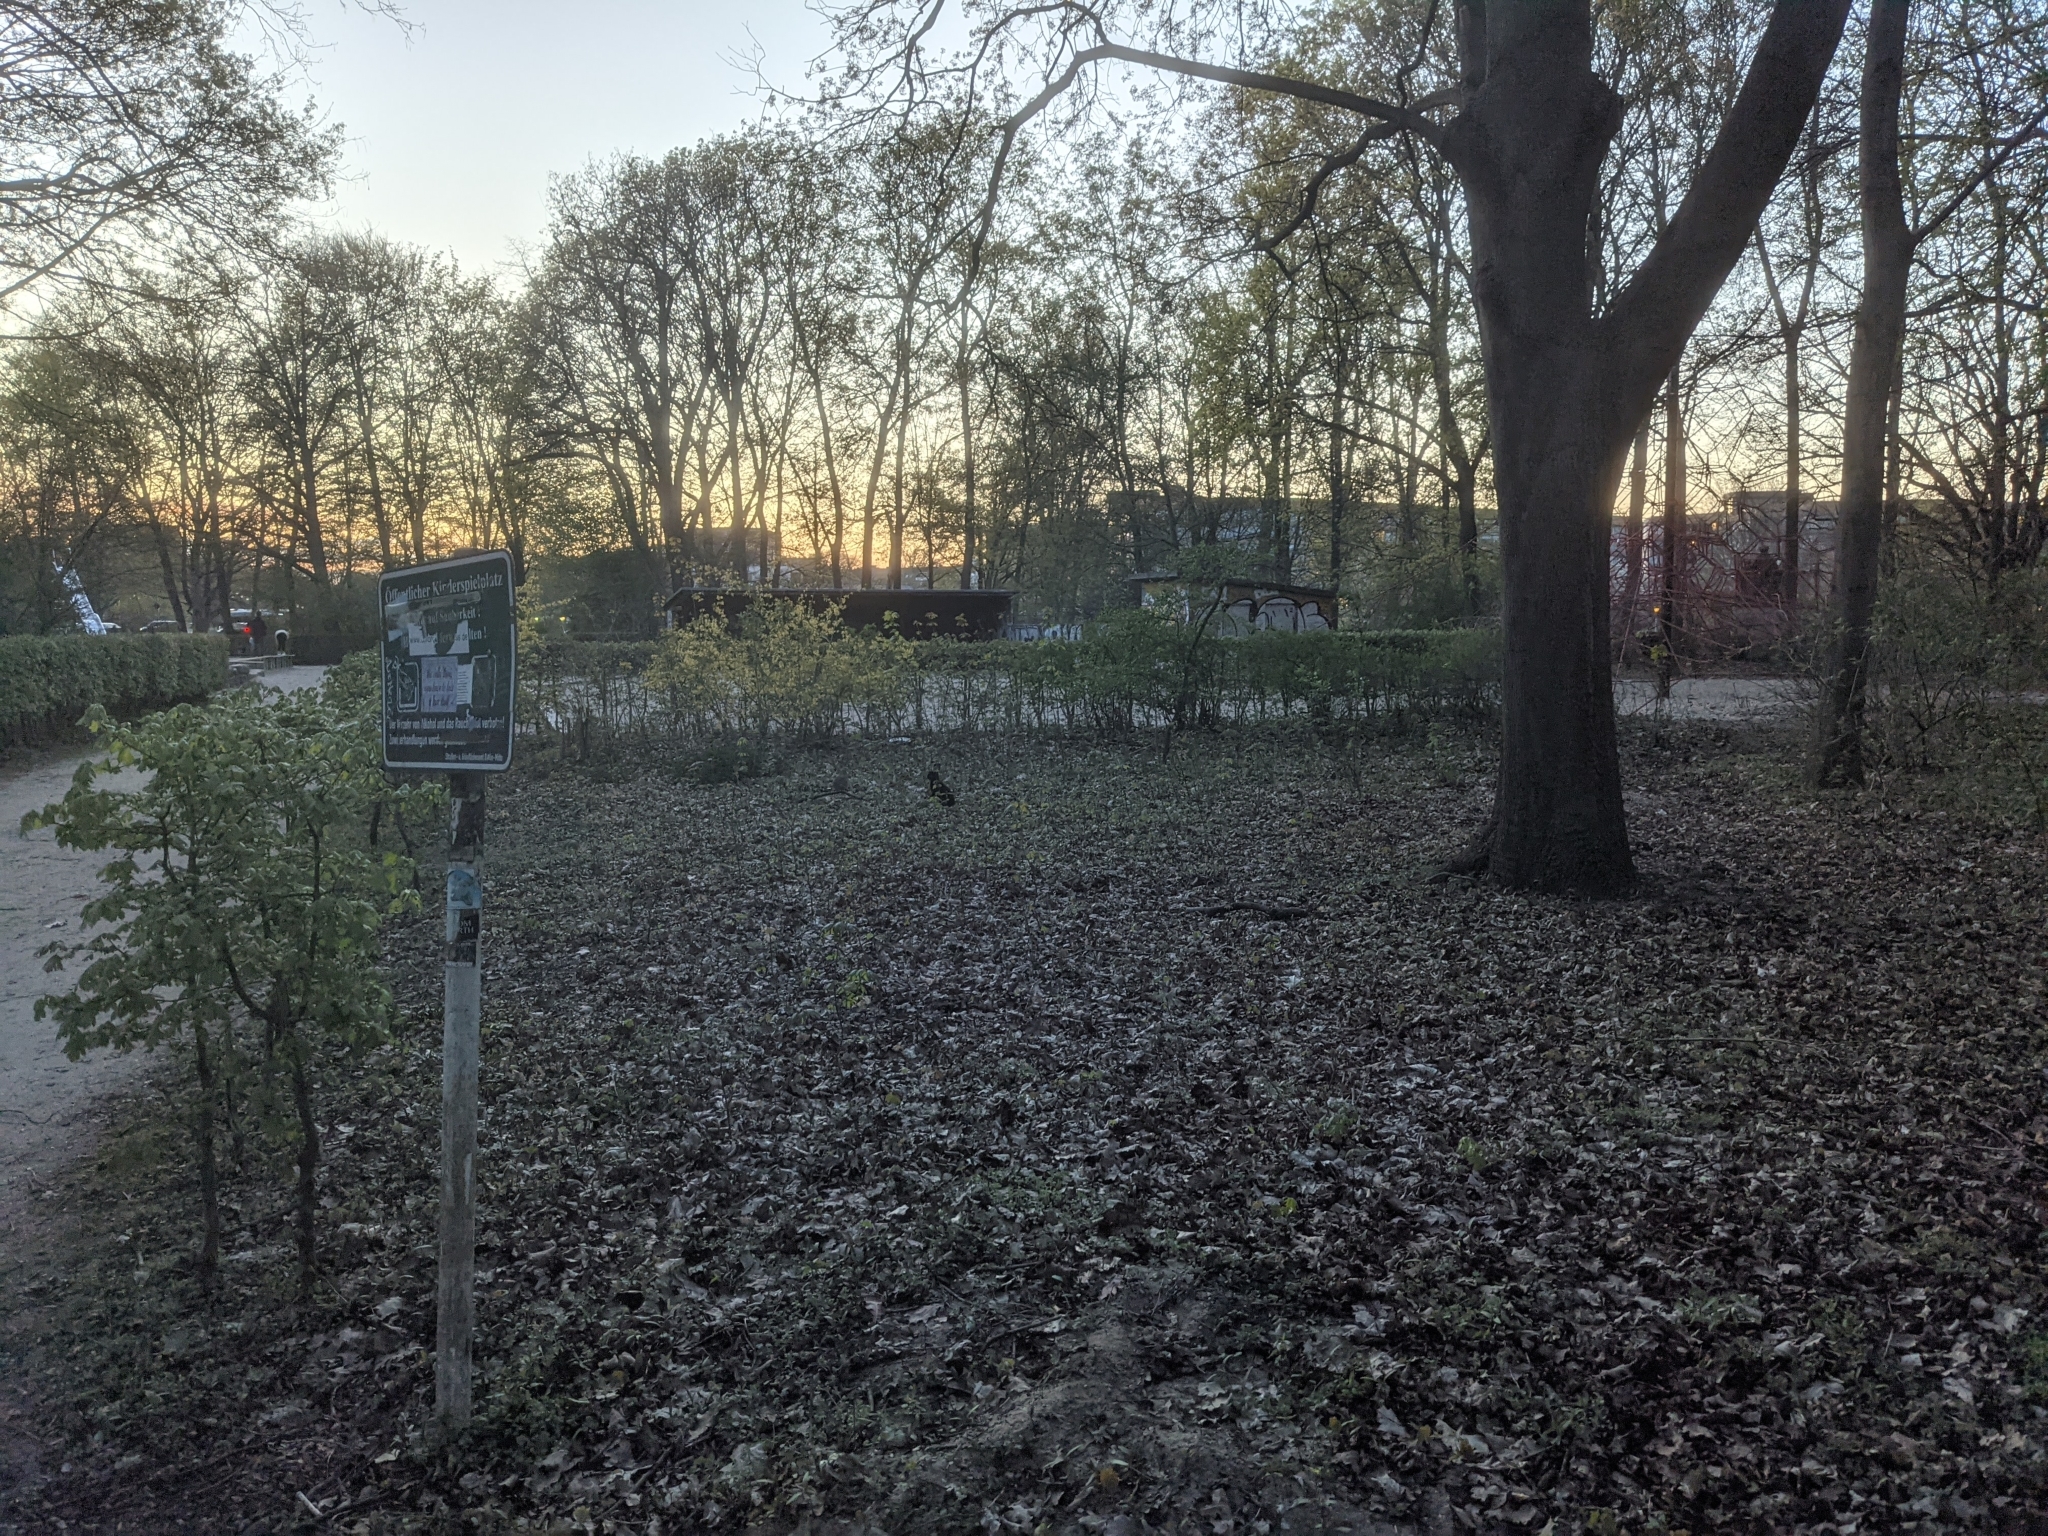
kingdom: Animalia
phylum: Chordata
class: Mammalia
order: Lagomorpha
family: Leporidae
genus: Oryctolagus
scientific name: Oryctolagus cuniculus
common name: European rabbit
